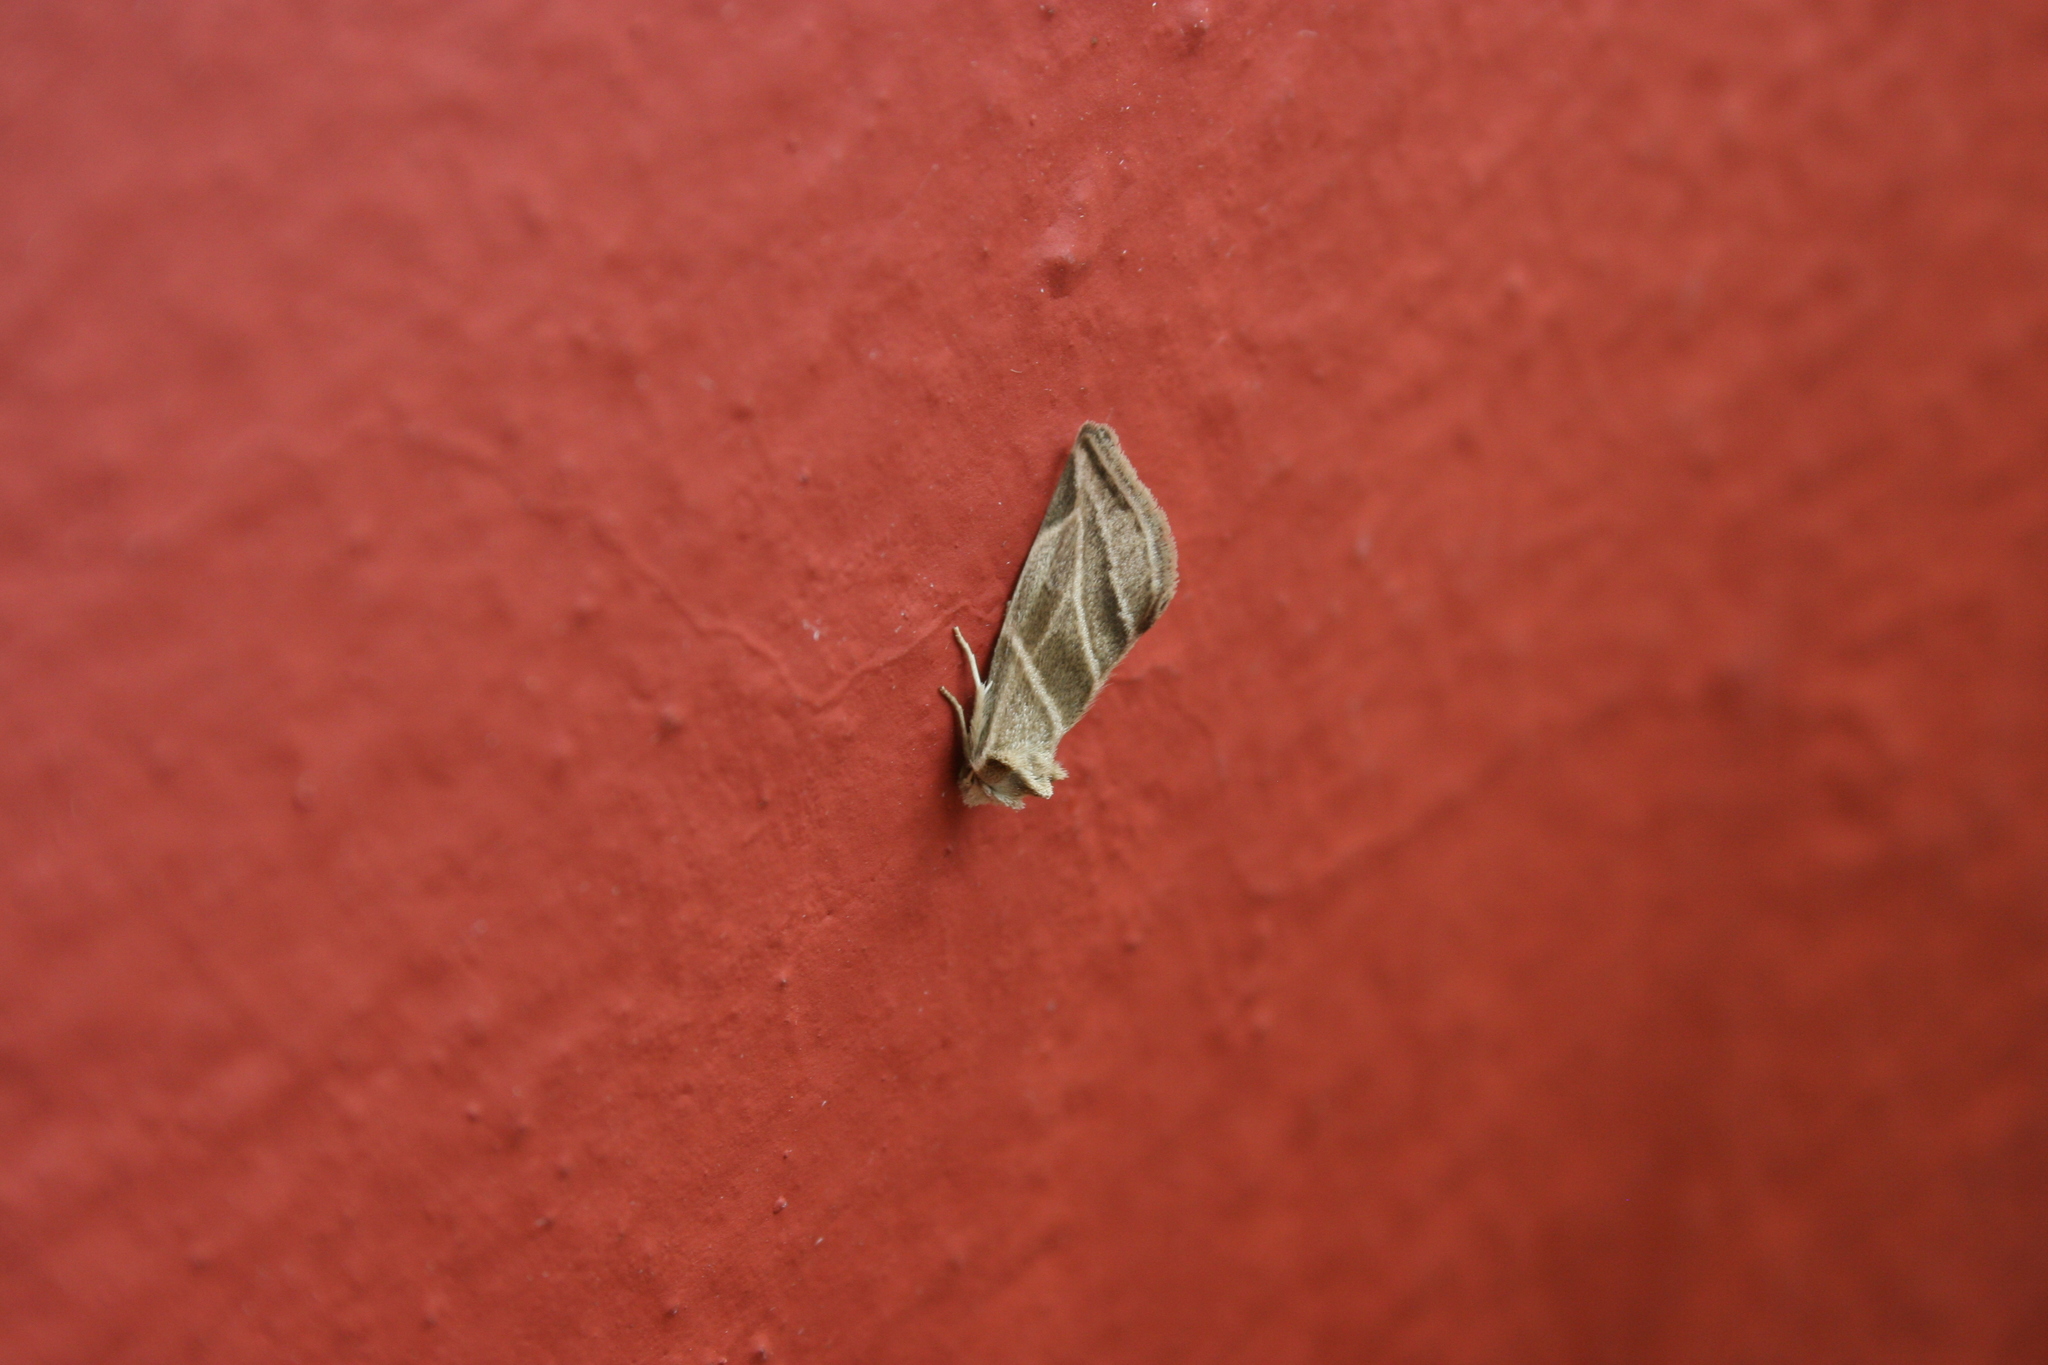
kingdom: Animalia
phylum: Arthropoda
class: Insecta
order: Lepidoptera
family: Noctuidae
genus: Plagiomimicus
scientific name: Plagiomimicus tepperi
